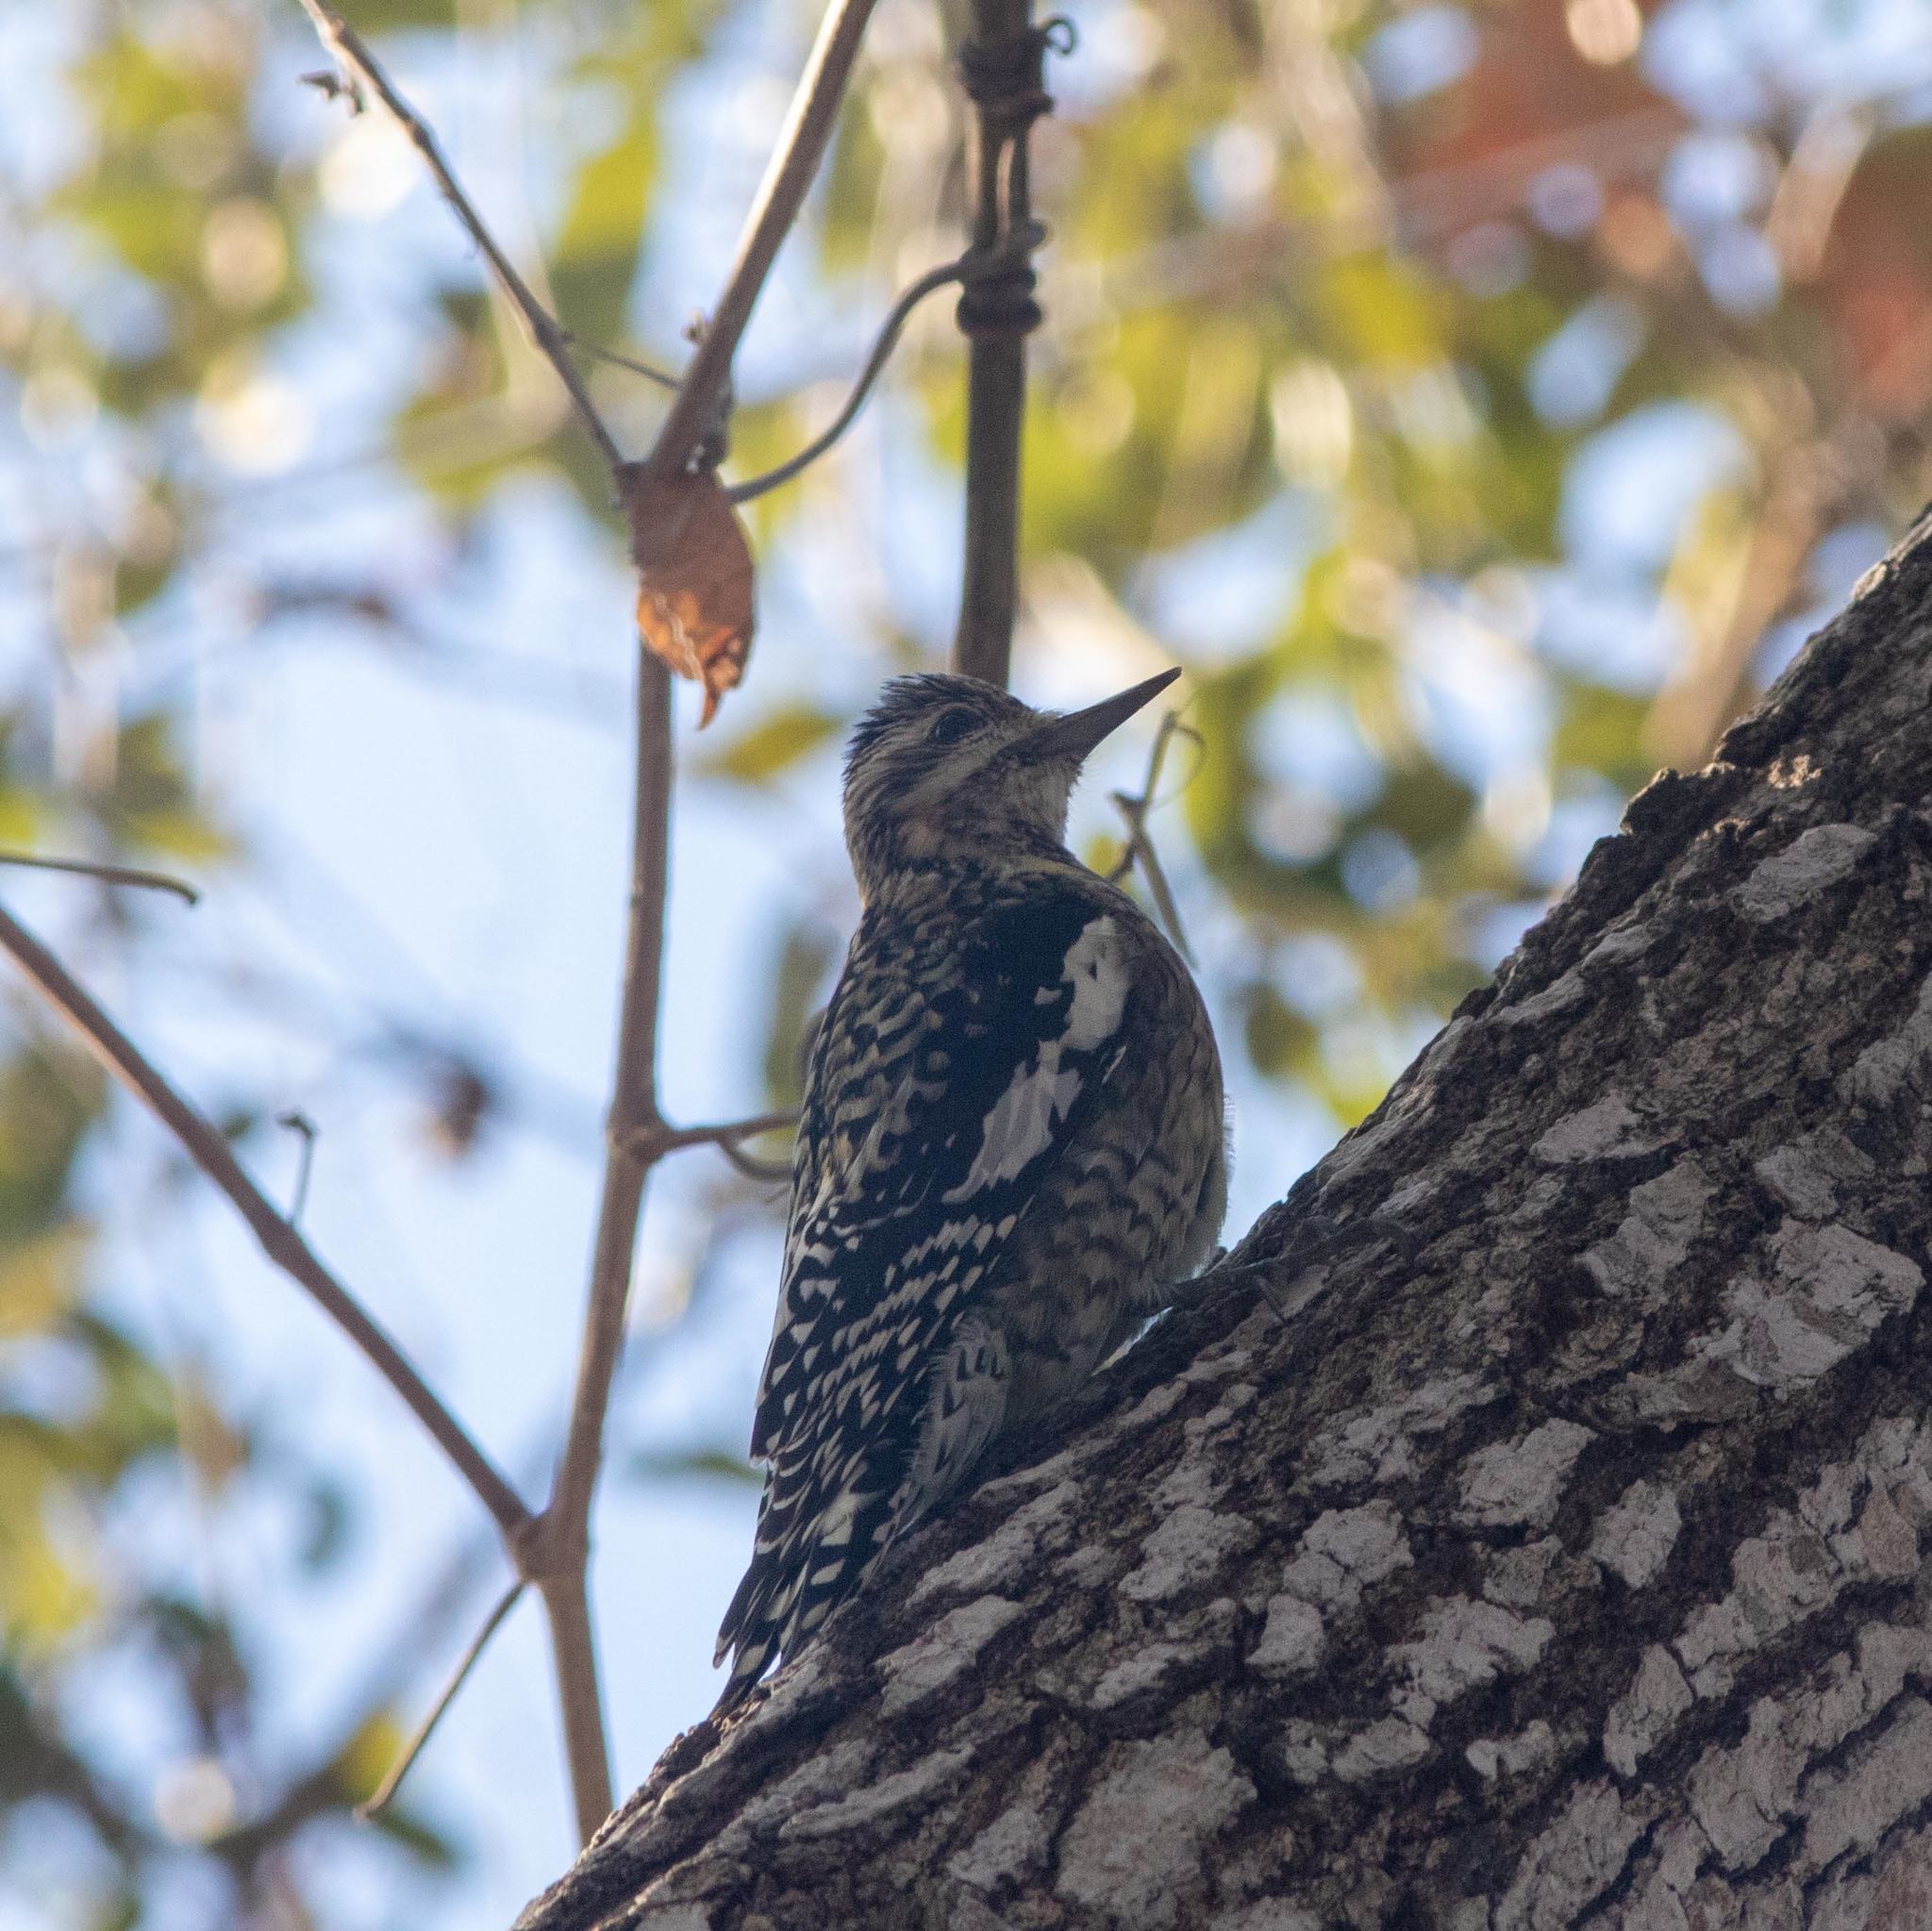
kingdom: Animalia
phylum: Chordata
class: Aves
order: Piciformes
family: Picidae
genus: Sphyrapicus
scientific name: Sphyrapicus varius
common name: Yellow-bellied sapsucker
